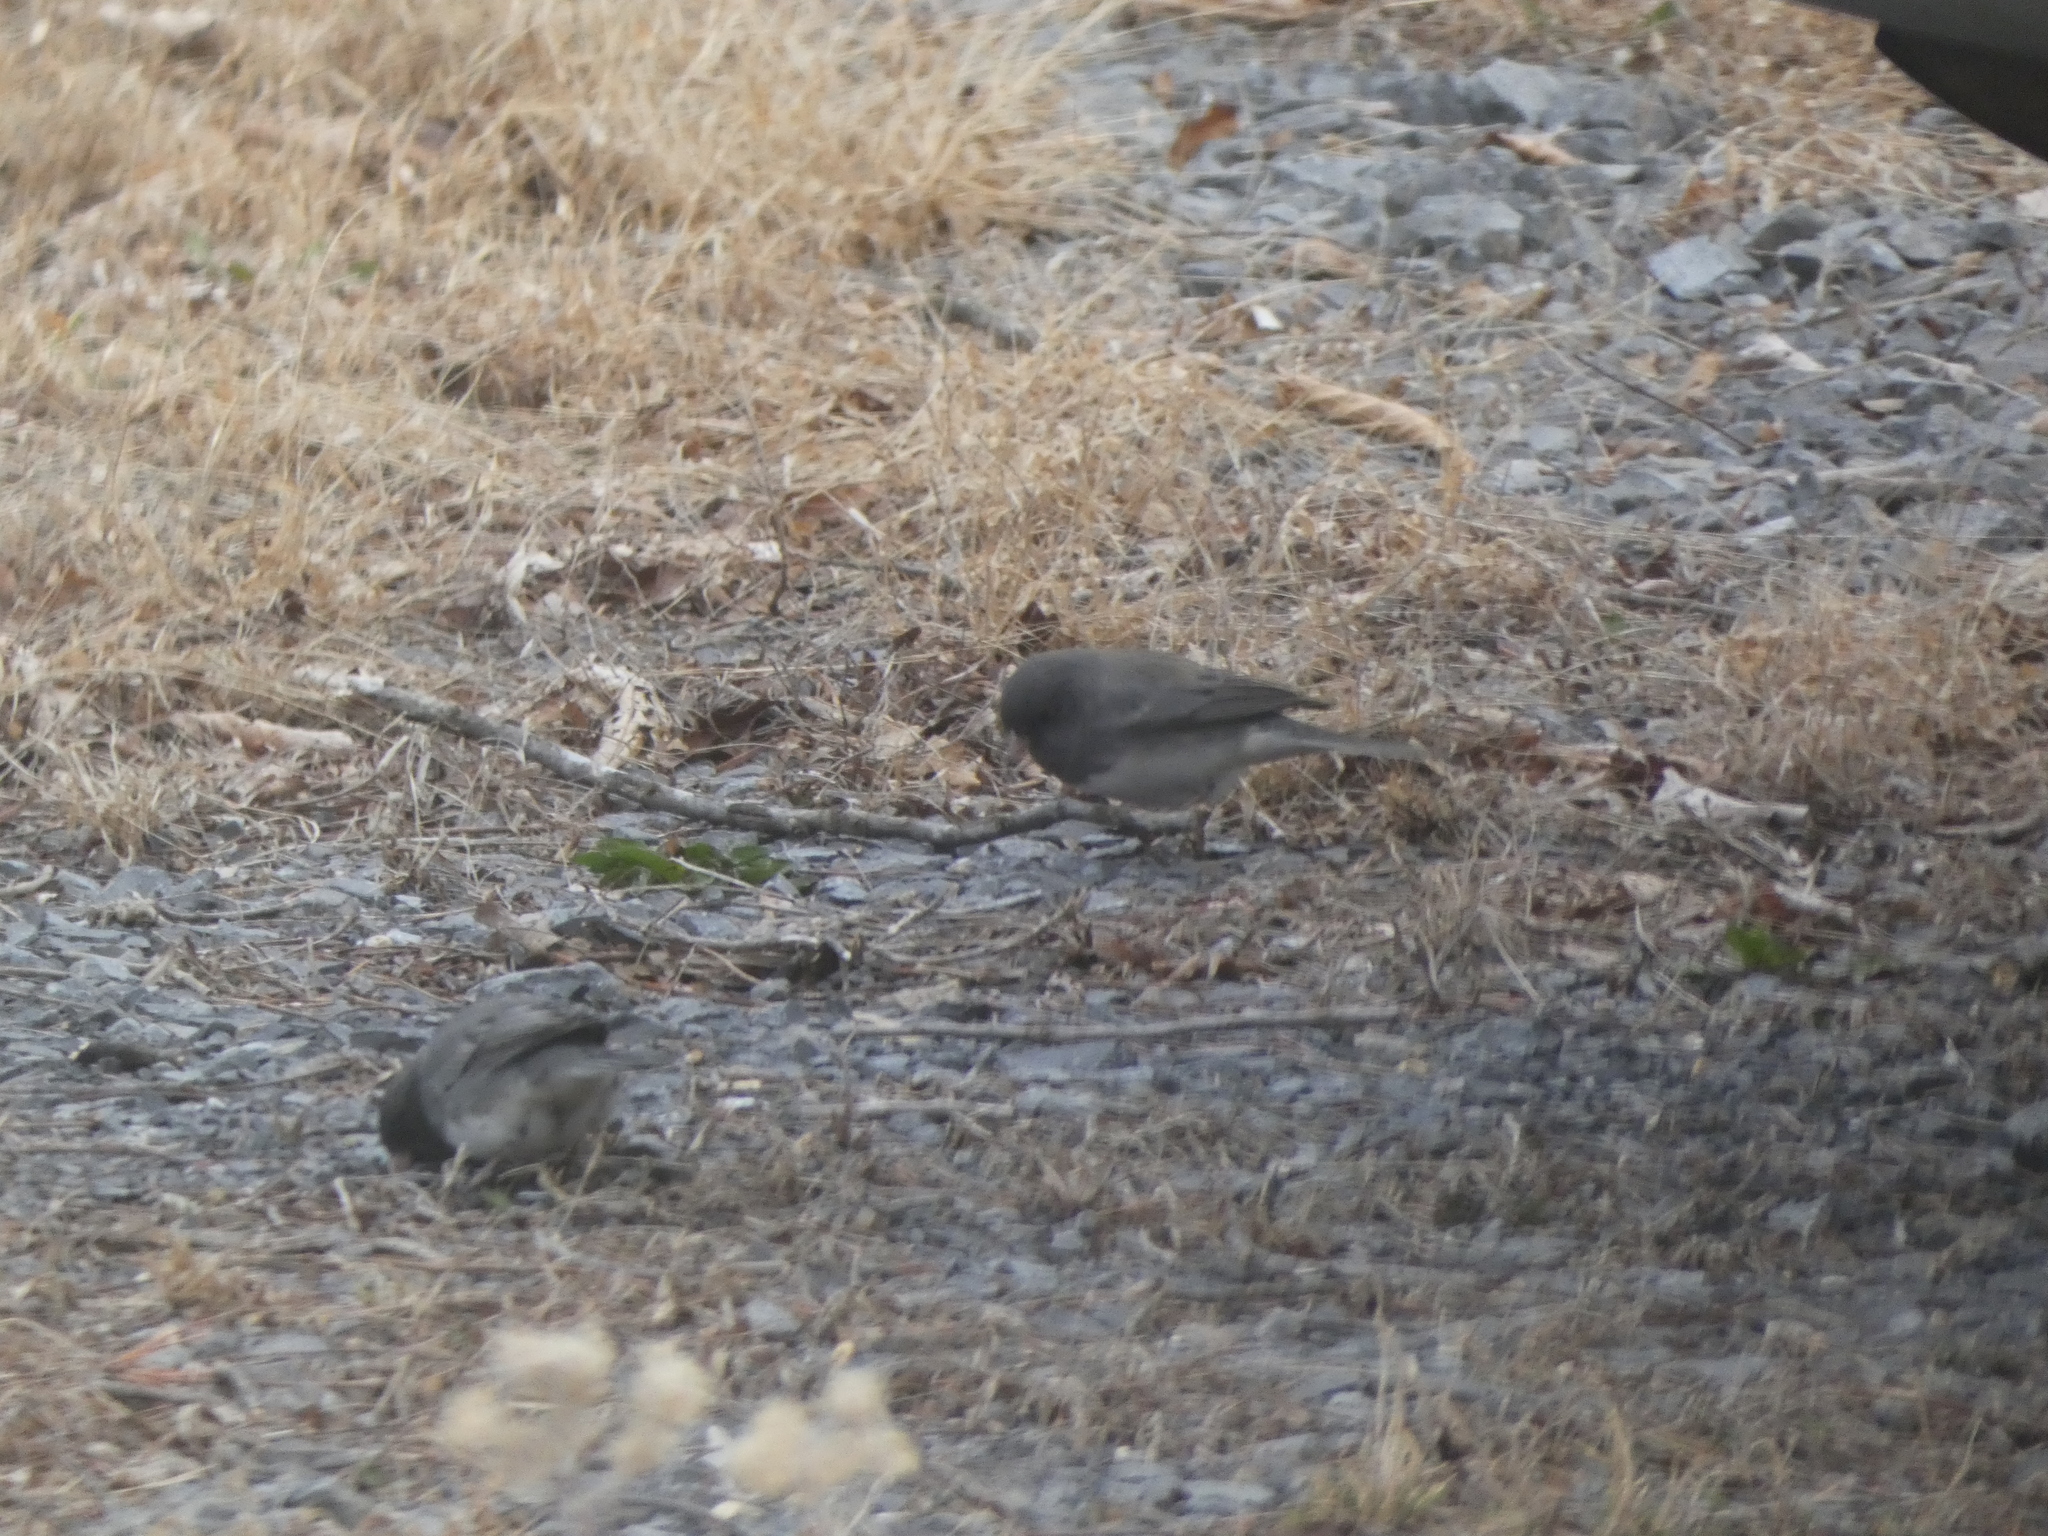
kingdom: Animalia
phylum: Chordata
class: Aves
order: Passeriformes
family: Passerellidae
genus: Junco
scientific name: Junco hyemalis
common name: Dark-eyed junco
